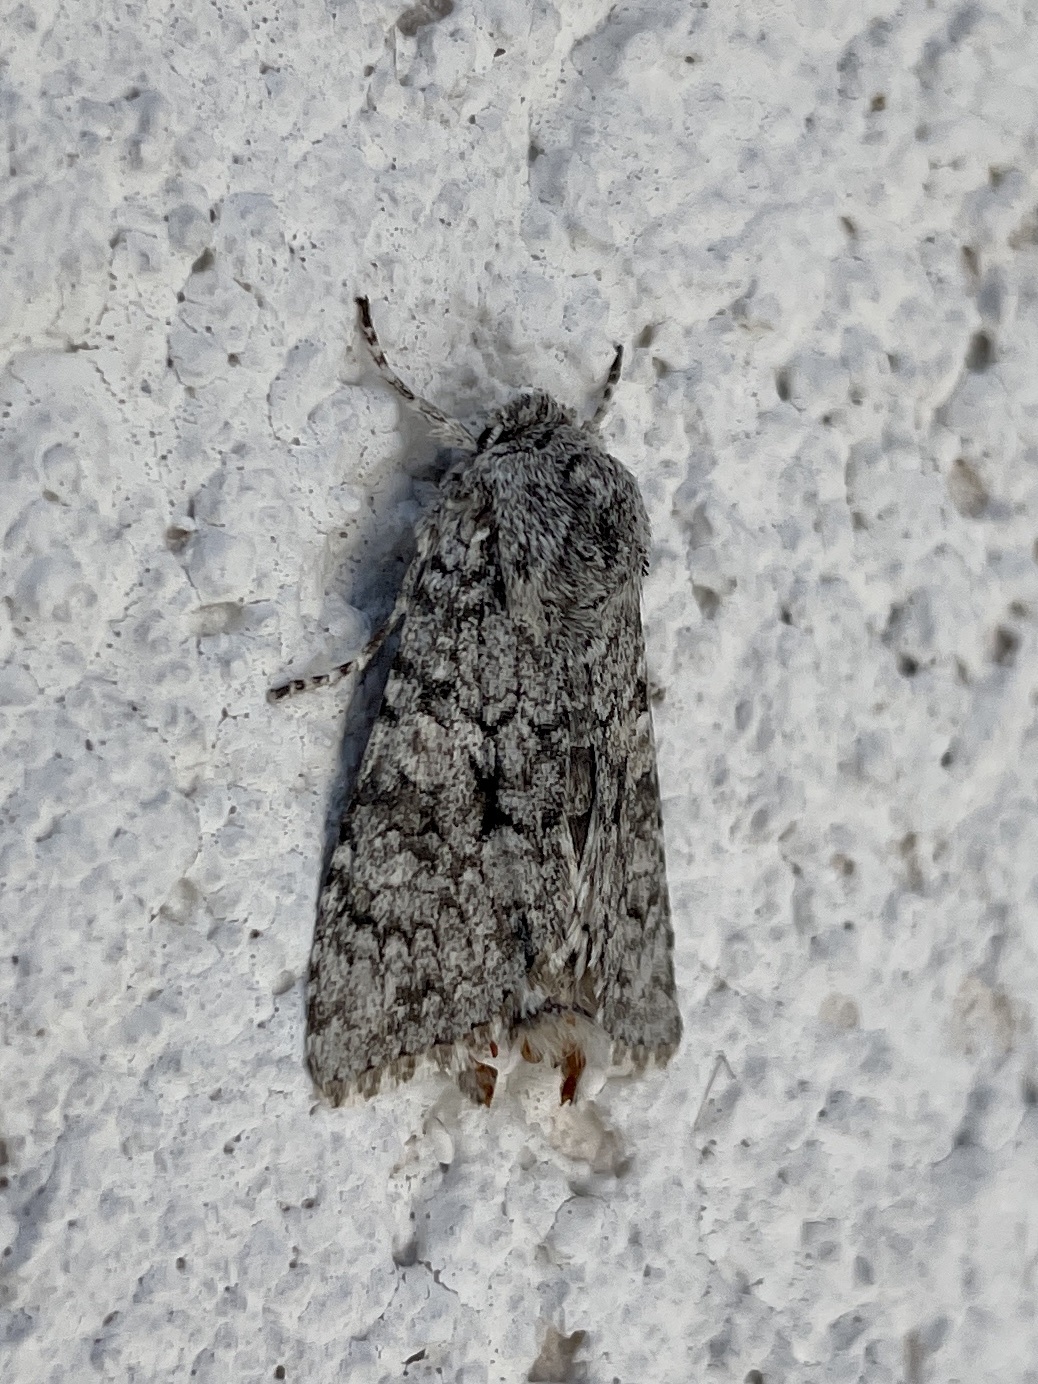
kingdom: Animalia
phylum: Arthropoda
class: Insecta
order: Lepidoptera
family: Noctuidae
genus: Antitype
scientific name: Antitype chi
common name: Grey chi
